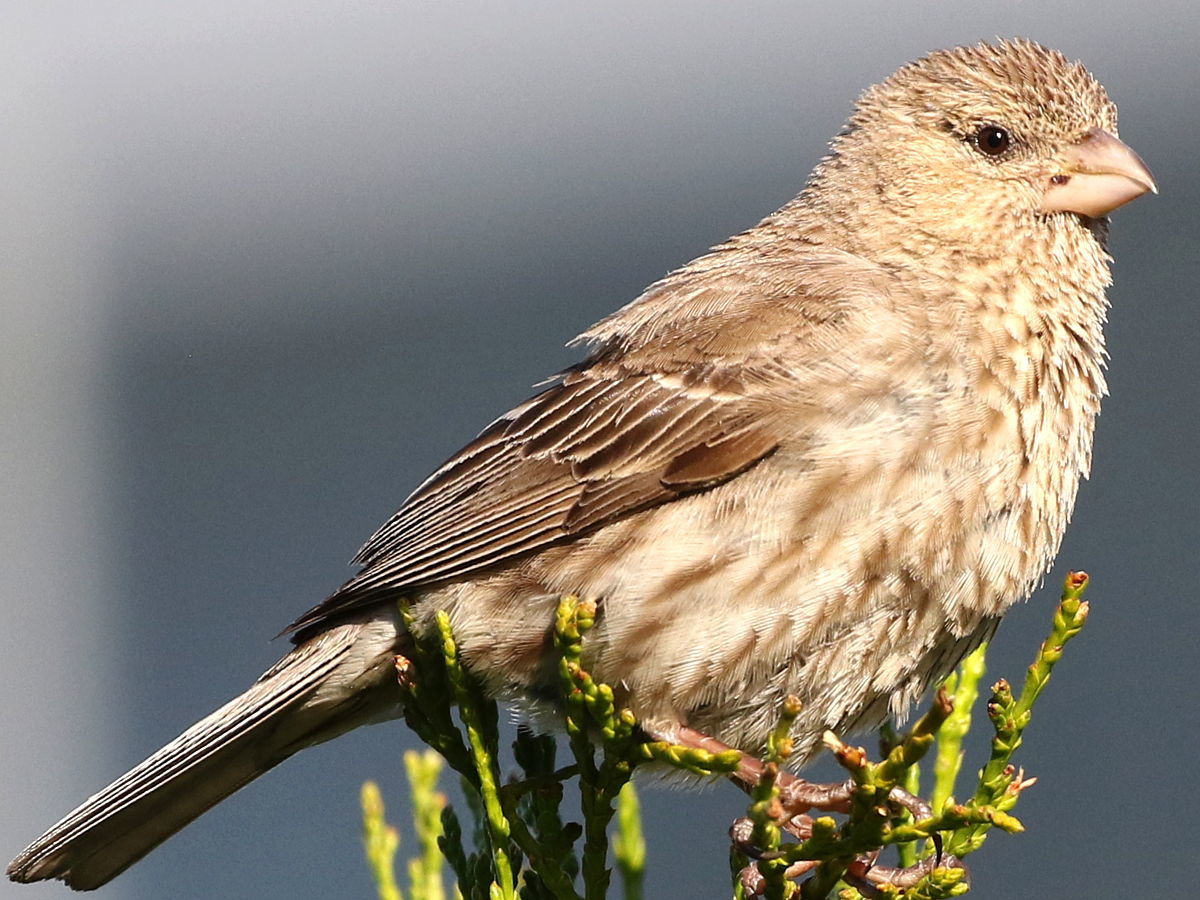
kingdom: Animalia
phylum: Chordata
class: Aves
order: Passeriformes
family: Fringillidae
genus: Haemorhous
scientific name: Haemorhous mexicanus
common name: House finch
